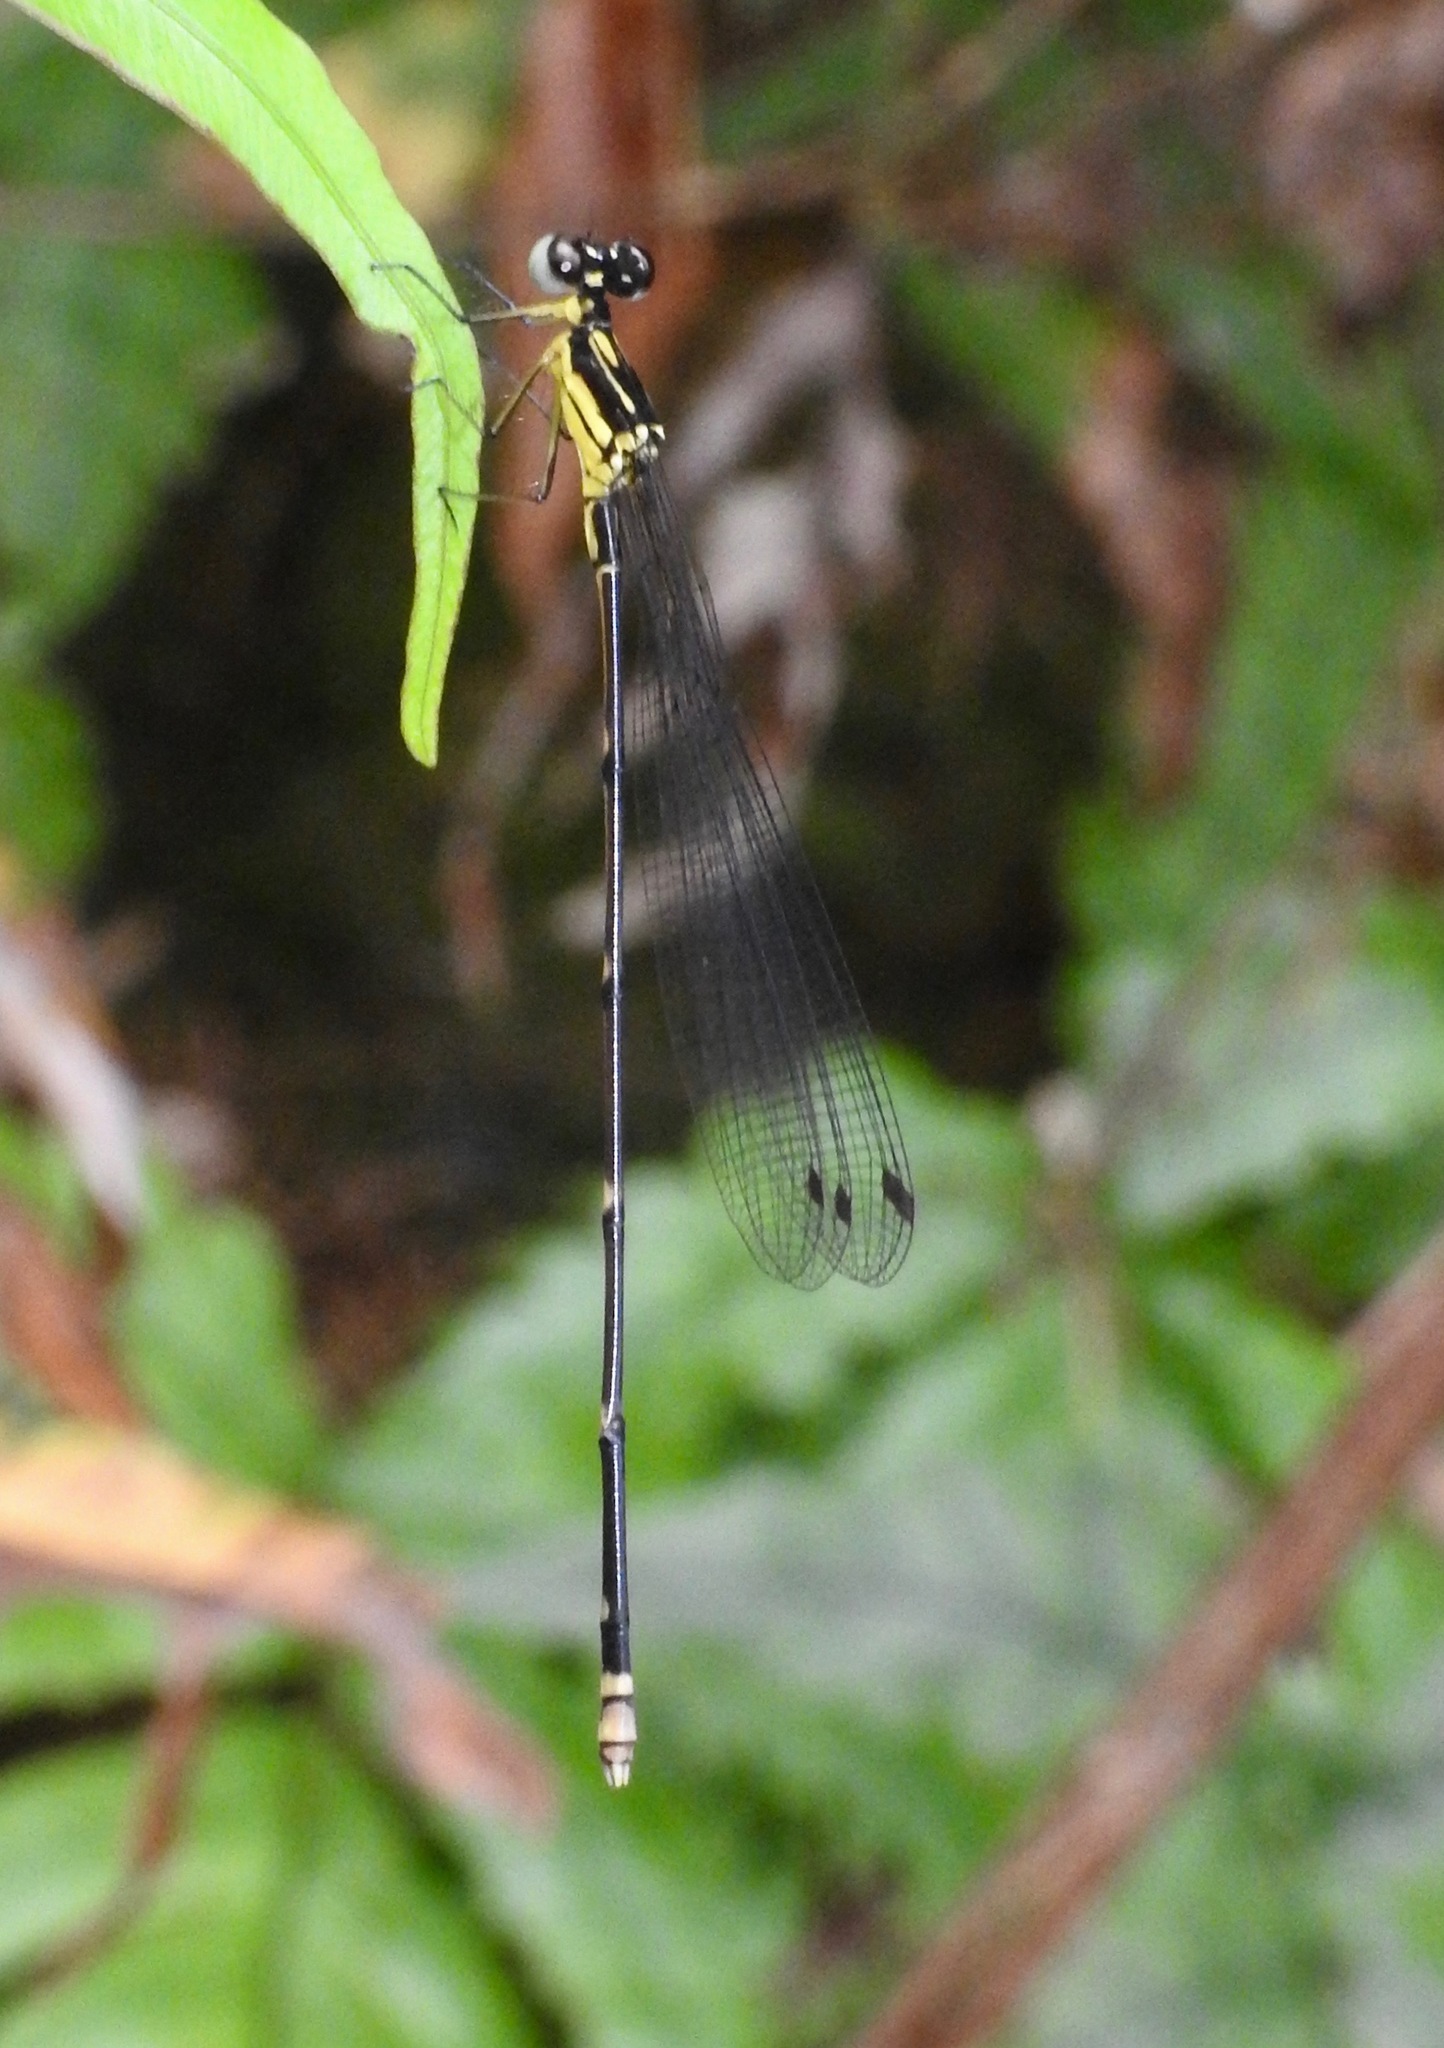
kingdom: Animalia
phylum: Arthropoda
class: Insecta
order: Odonata
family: Platycnemididae
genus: Coeliccia
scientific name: Coeliccia cyanomelas
